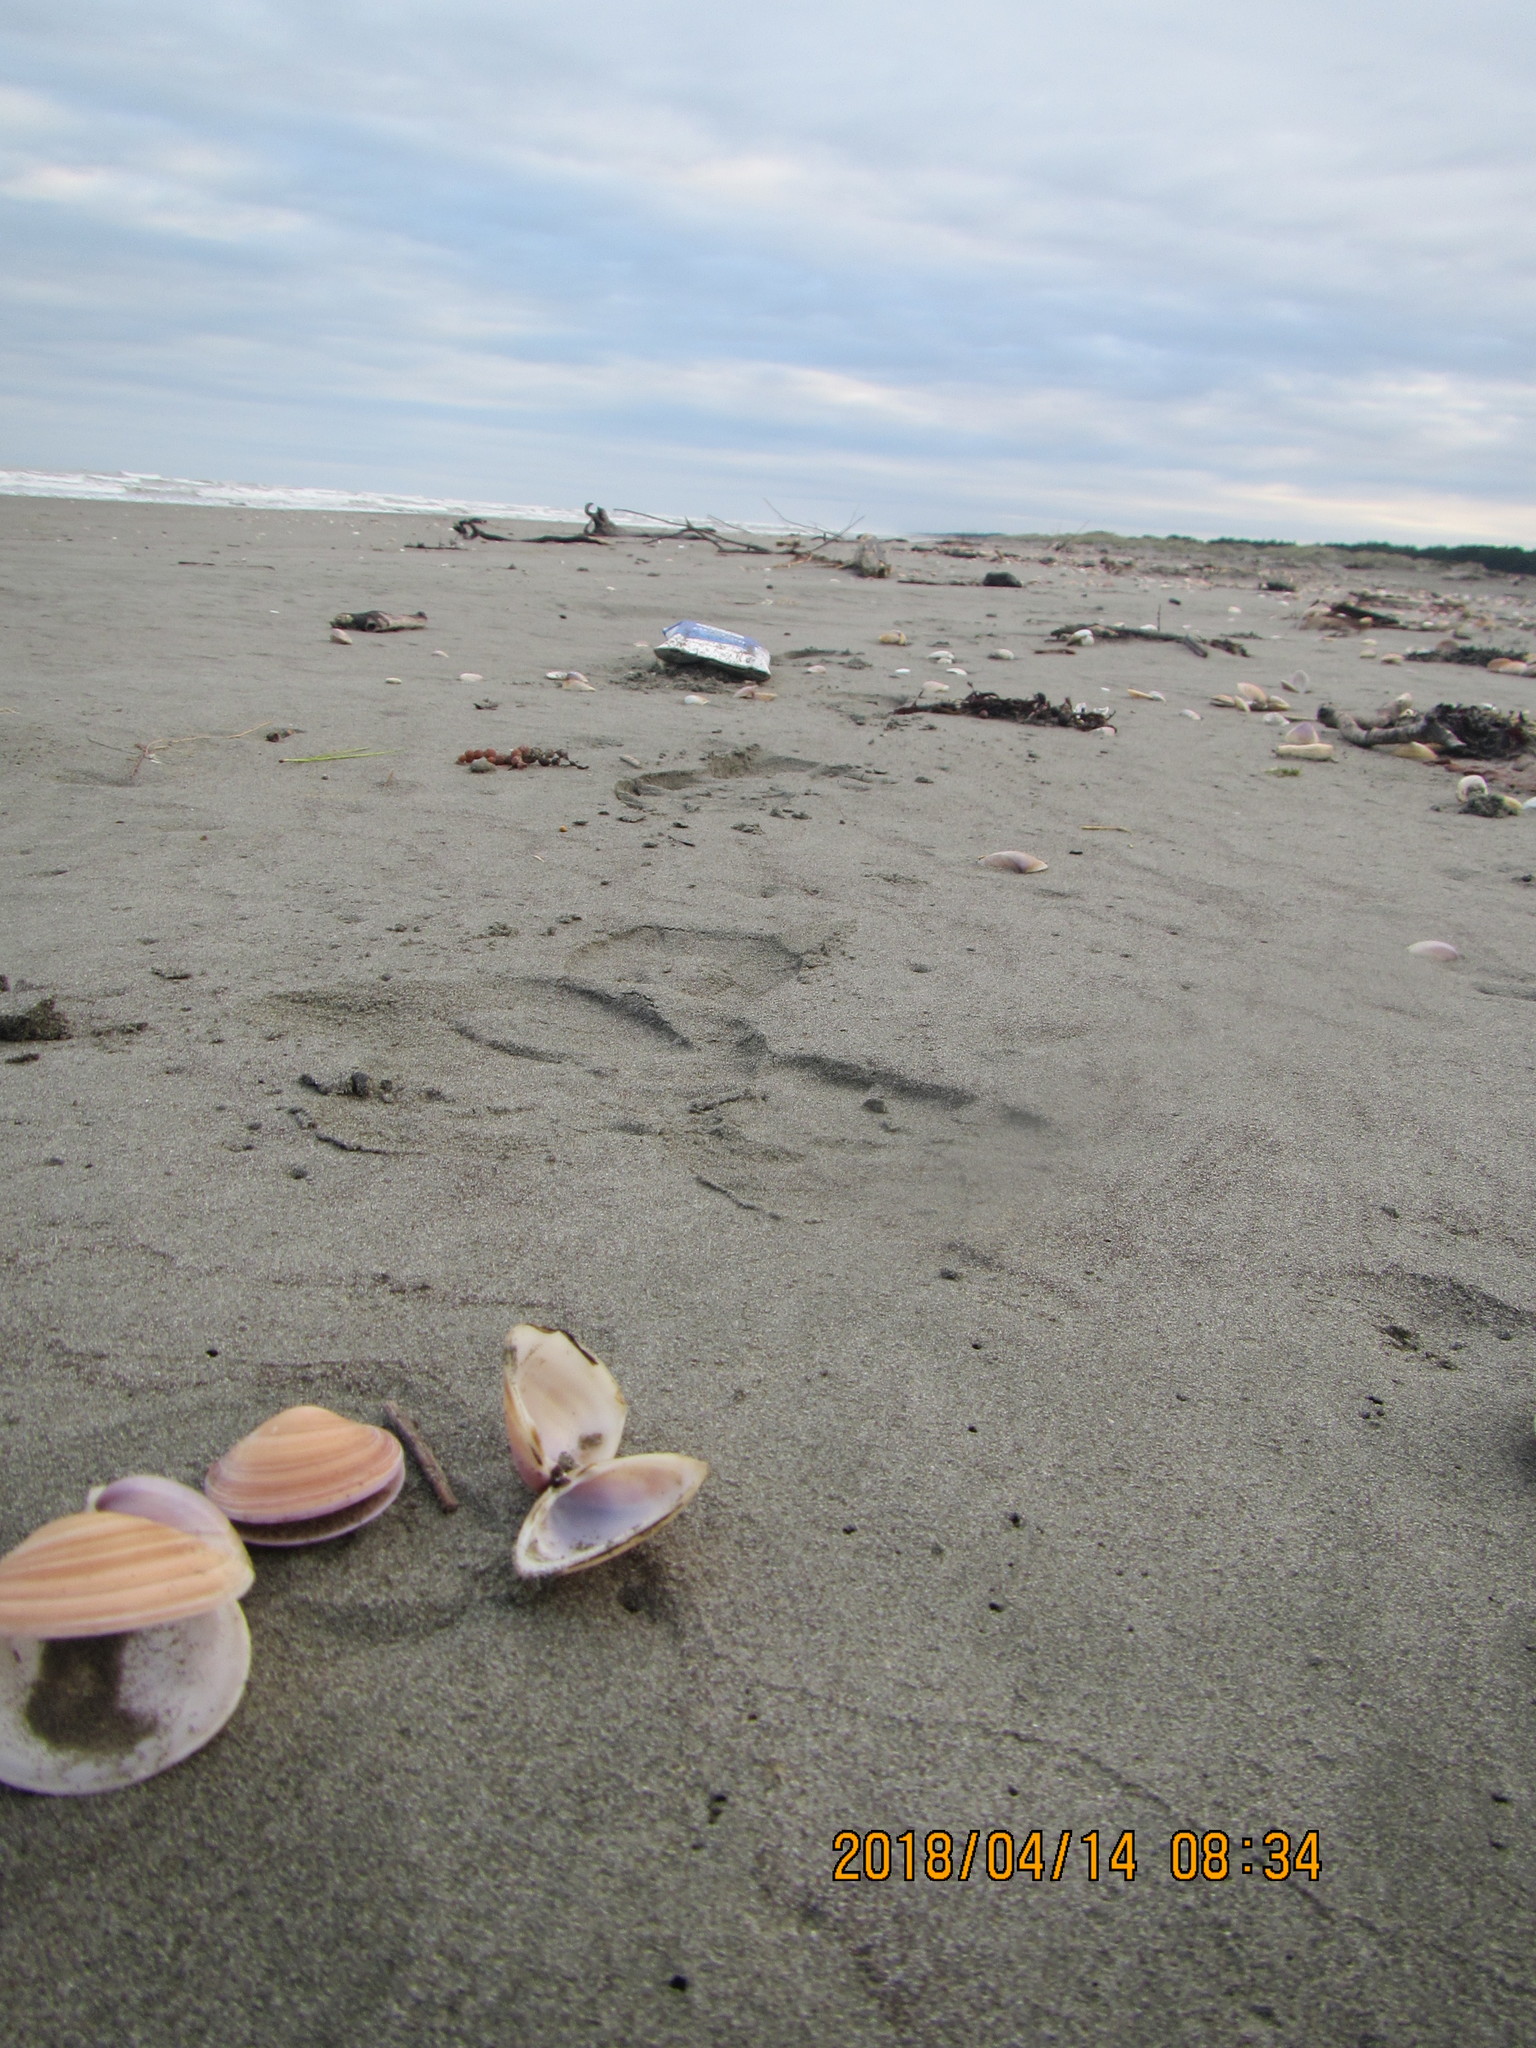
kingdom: Animalia
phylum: Mollusca
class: Bivalvia
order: Venerida
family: Mactridae
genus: Crassula
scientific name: Crassula aequilatera
